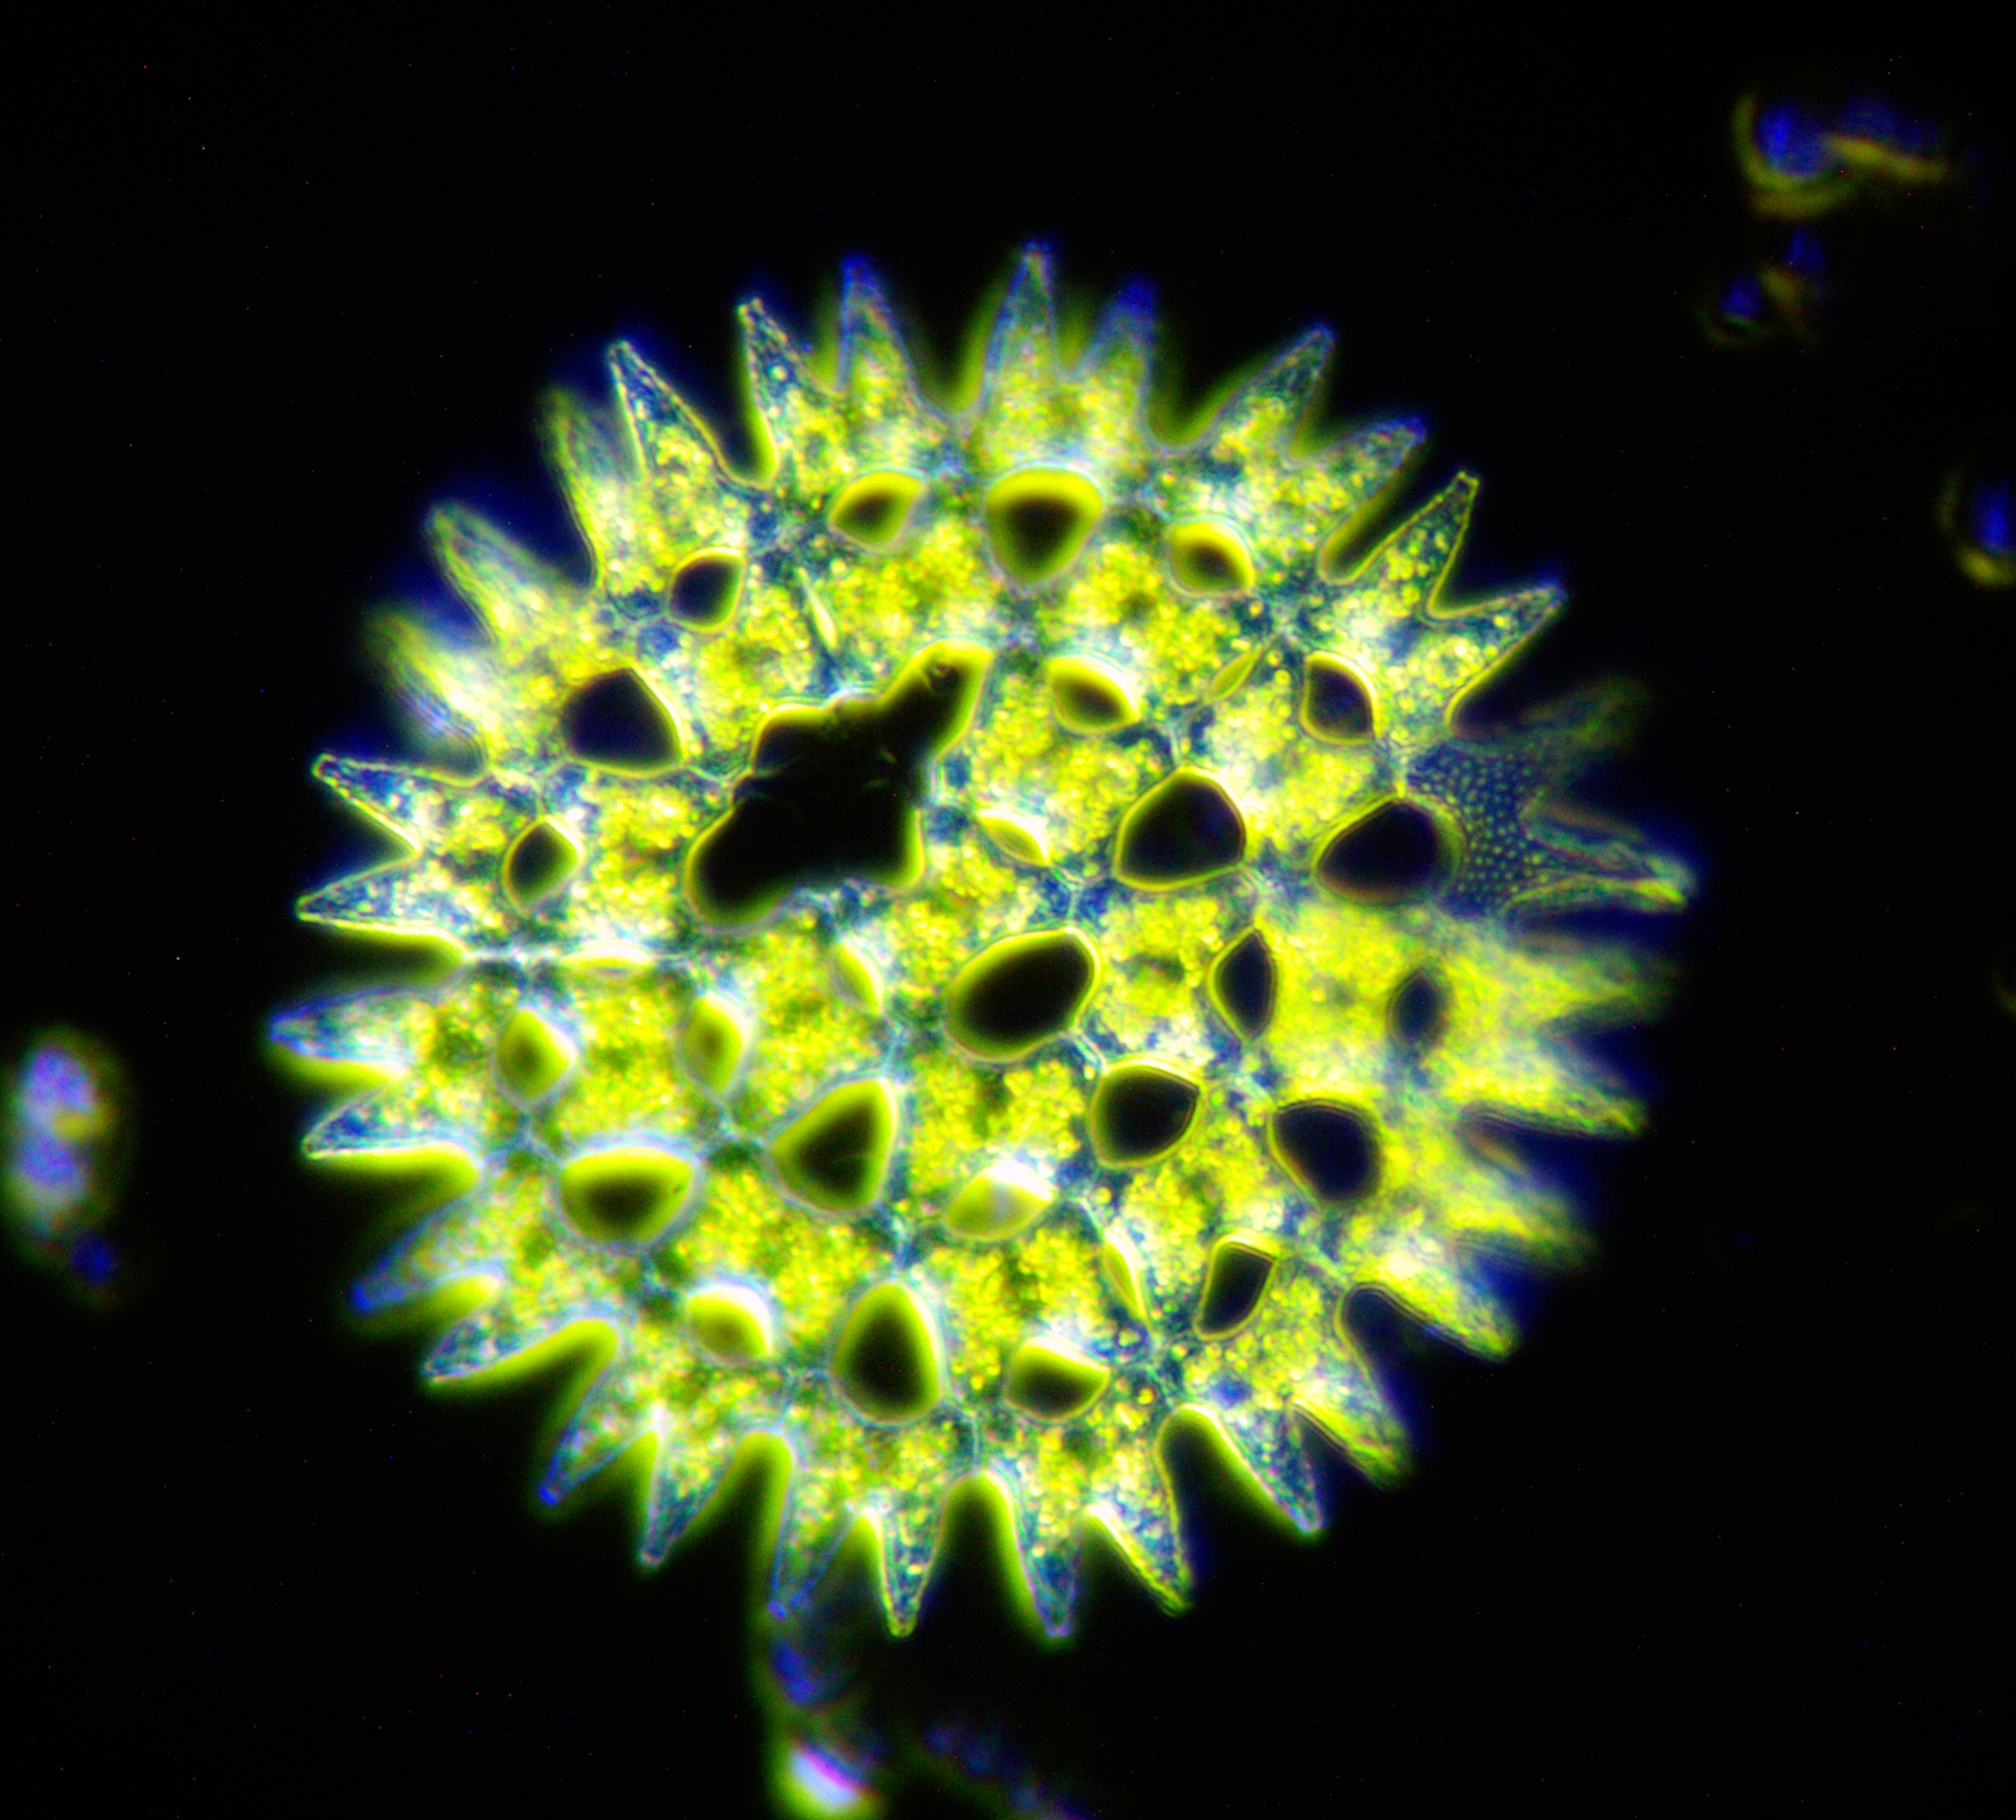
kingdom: Plantae
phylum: Chlorophyta
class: Chlorophyceae
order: Sphaeropleales
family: Hydrodictyaceae
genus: Pediastrum
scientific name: Pediastrum duplex
